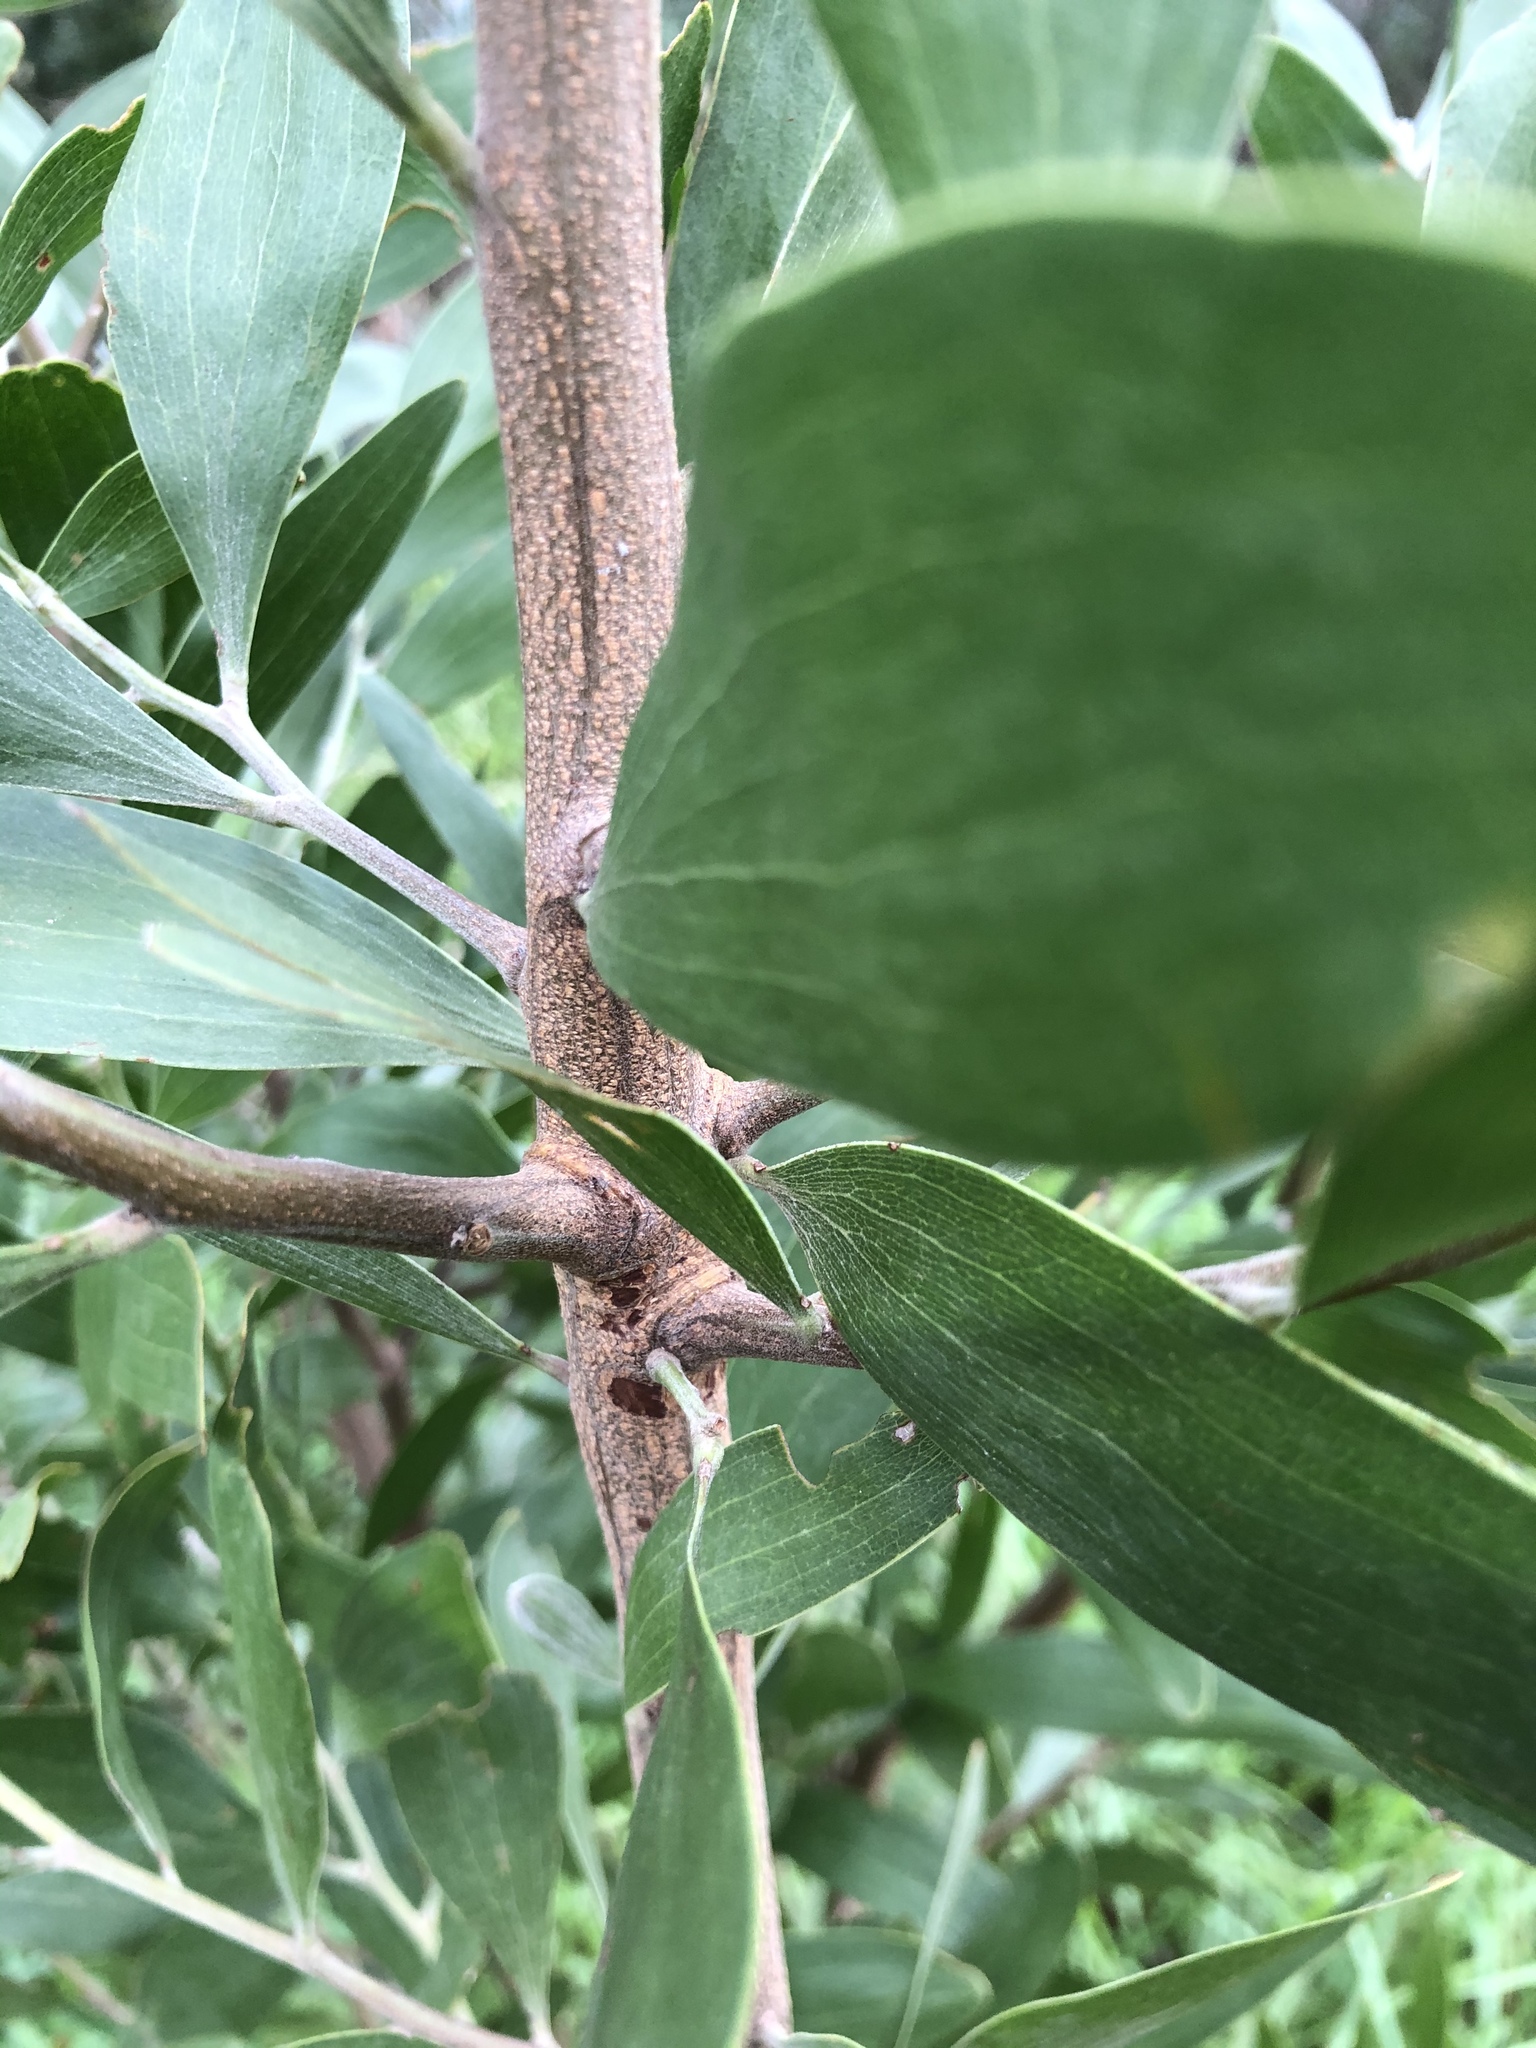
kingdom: Plantae
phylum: Tracheophyta
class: Magnoliopsida
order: Fabales
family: Fabaceae
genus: Acacia
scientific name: Acacia melanoxylon
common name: Blackwood
